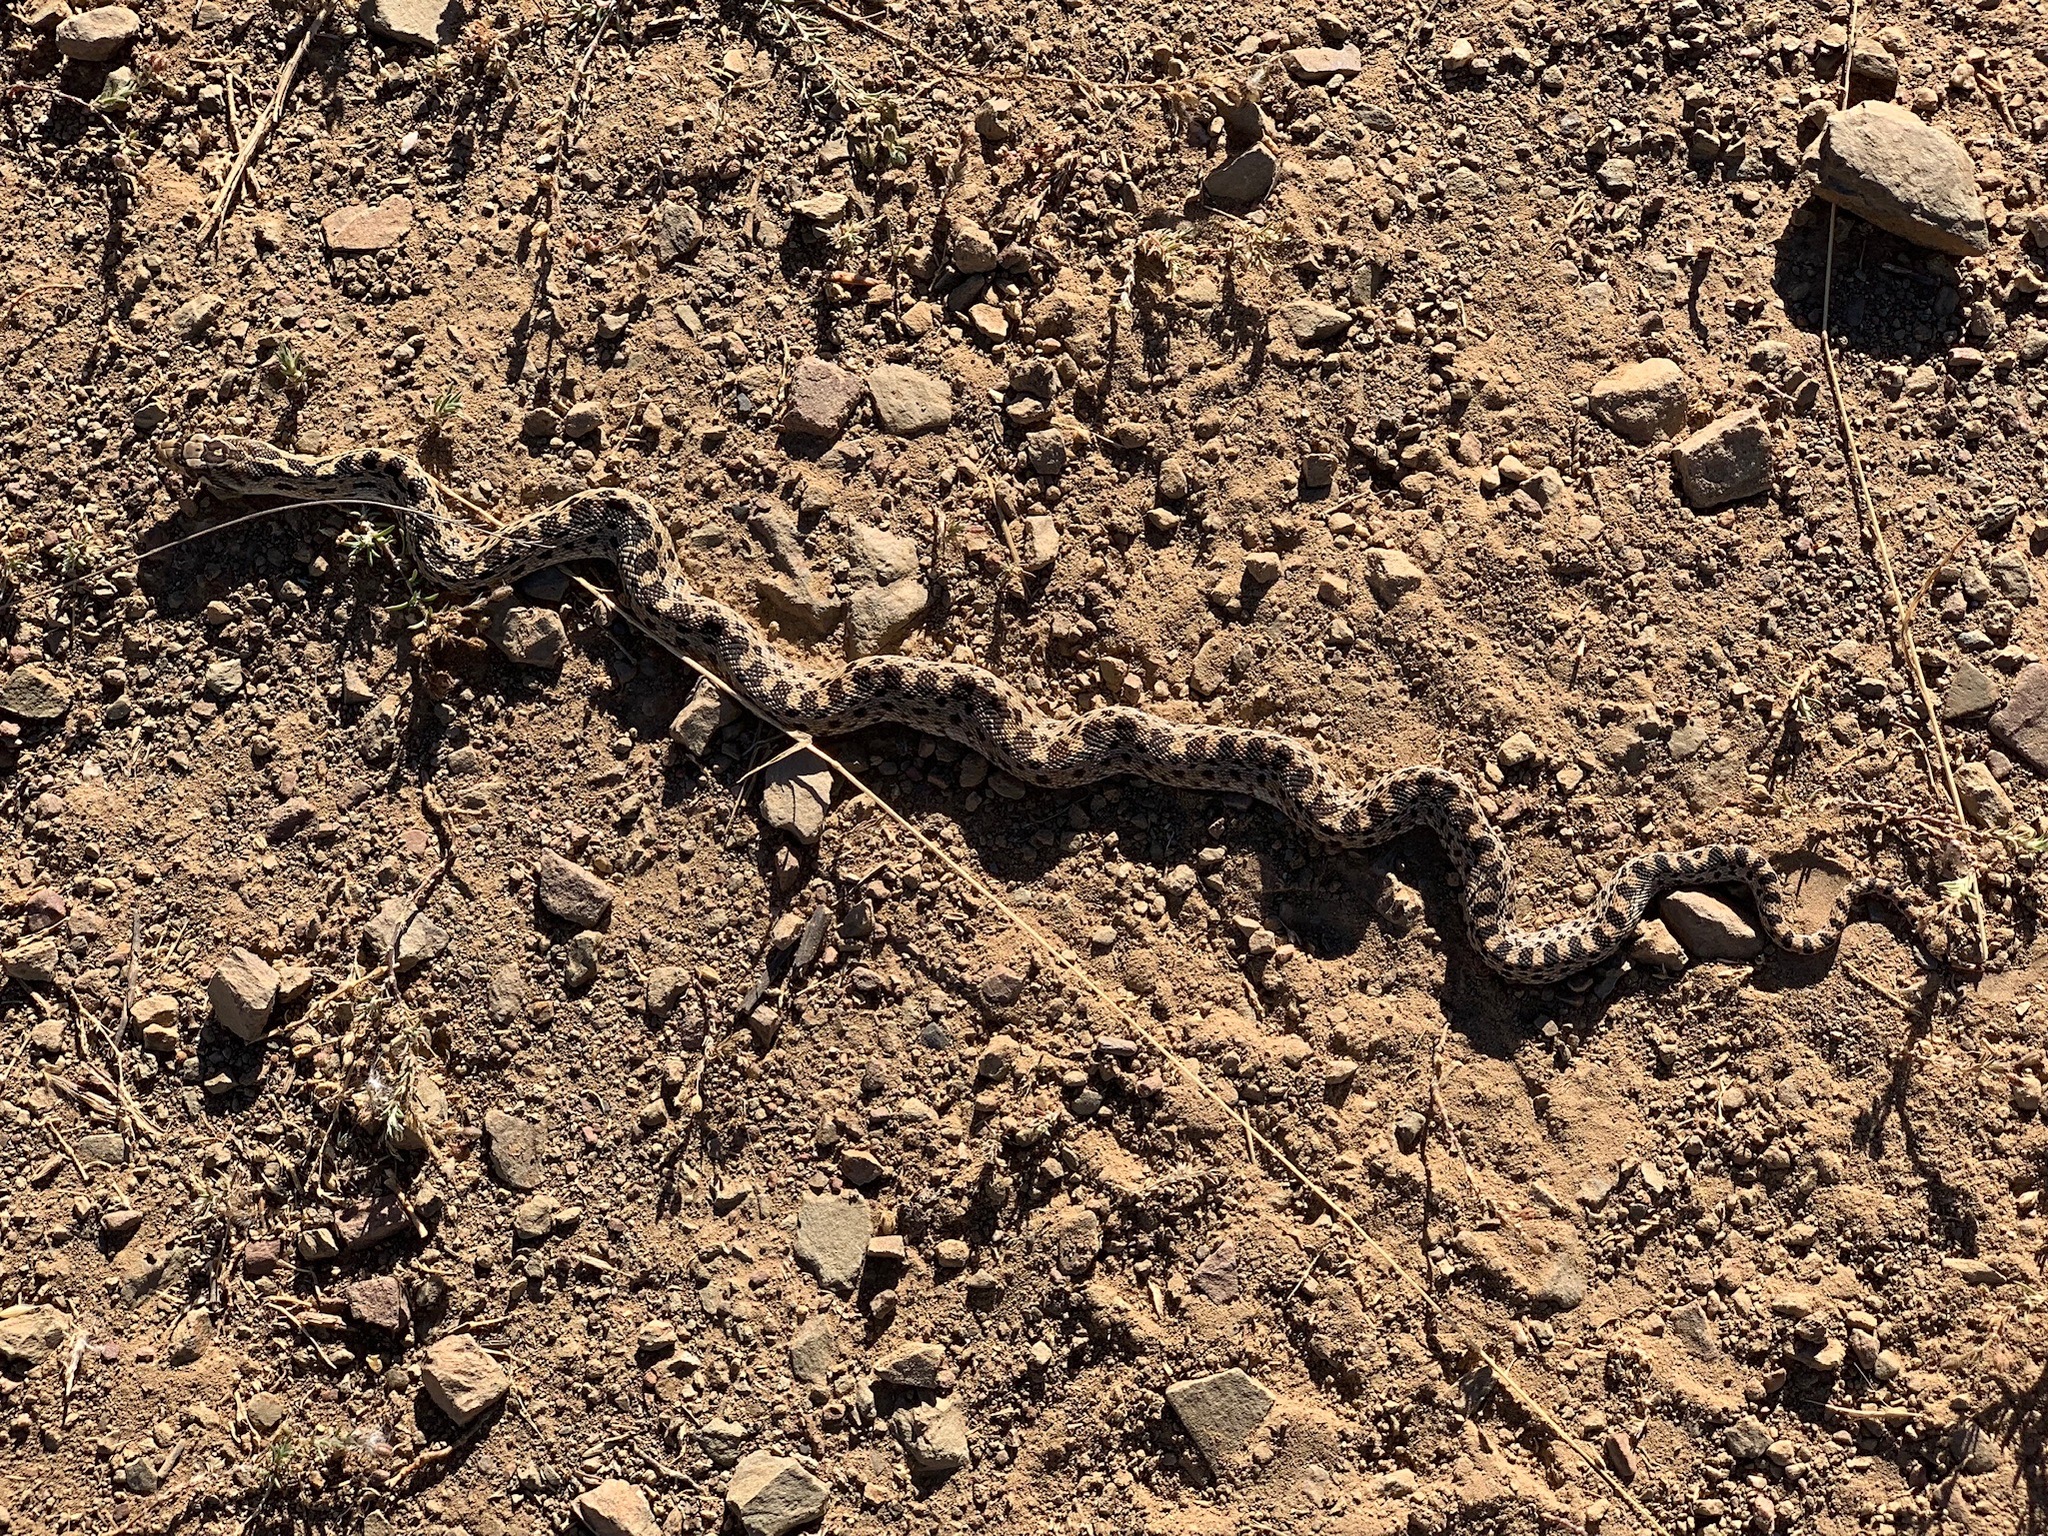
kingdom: Animalia
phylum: Chordata
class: Squamata
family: Colubridae
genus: Pituophis
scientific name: Pituophis catenifer
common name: Gopher snake
